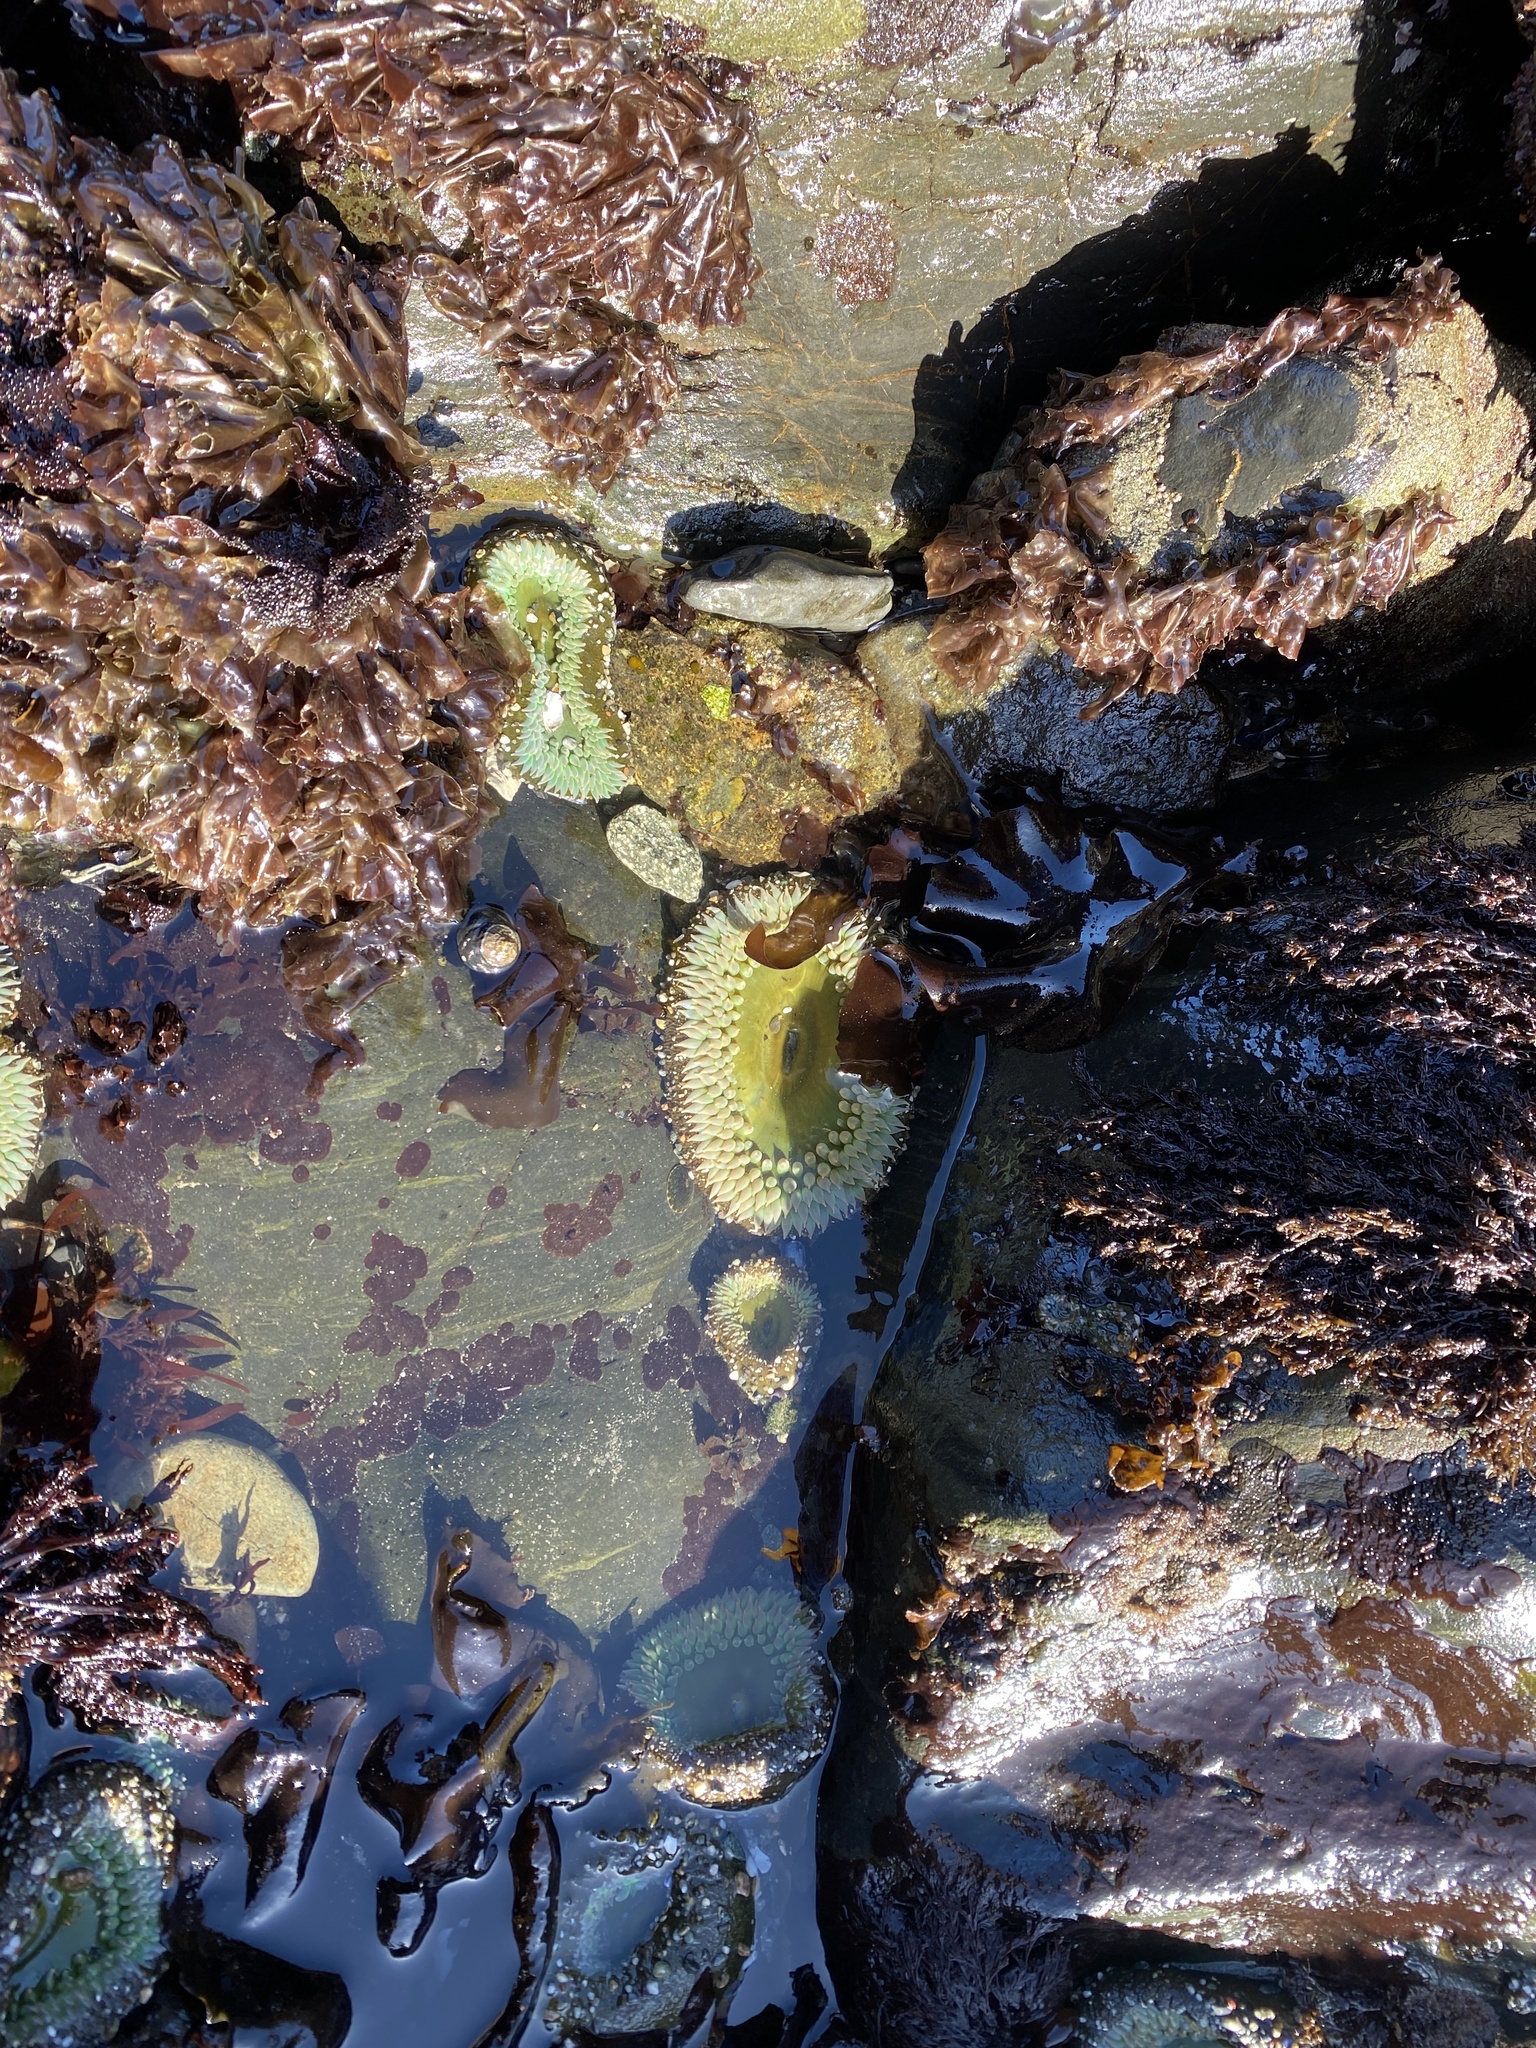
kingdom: Animalia
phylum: Cnidaria
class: Anthozoa
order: Actiniaria
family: Actiniidae
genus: Anthopleura
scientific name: Anthopleura xanthogrammica
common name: Giant green anemone
